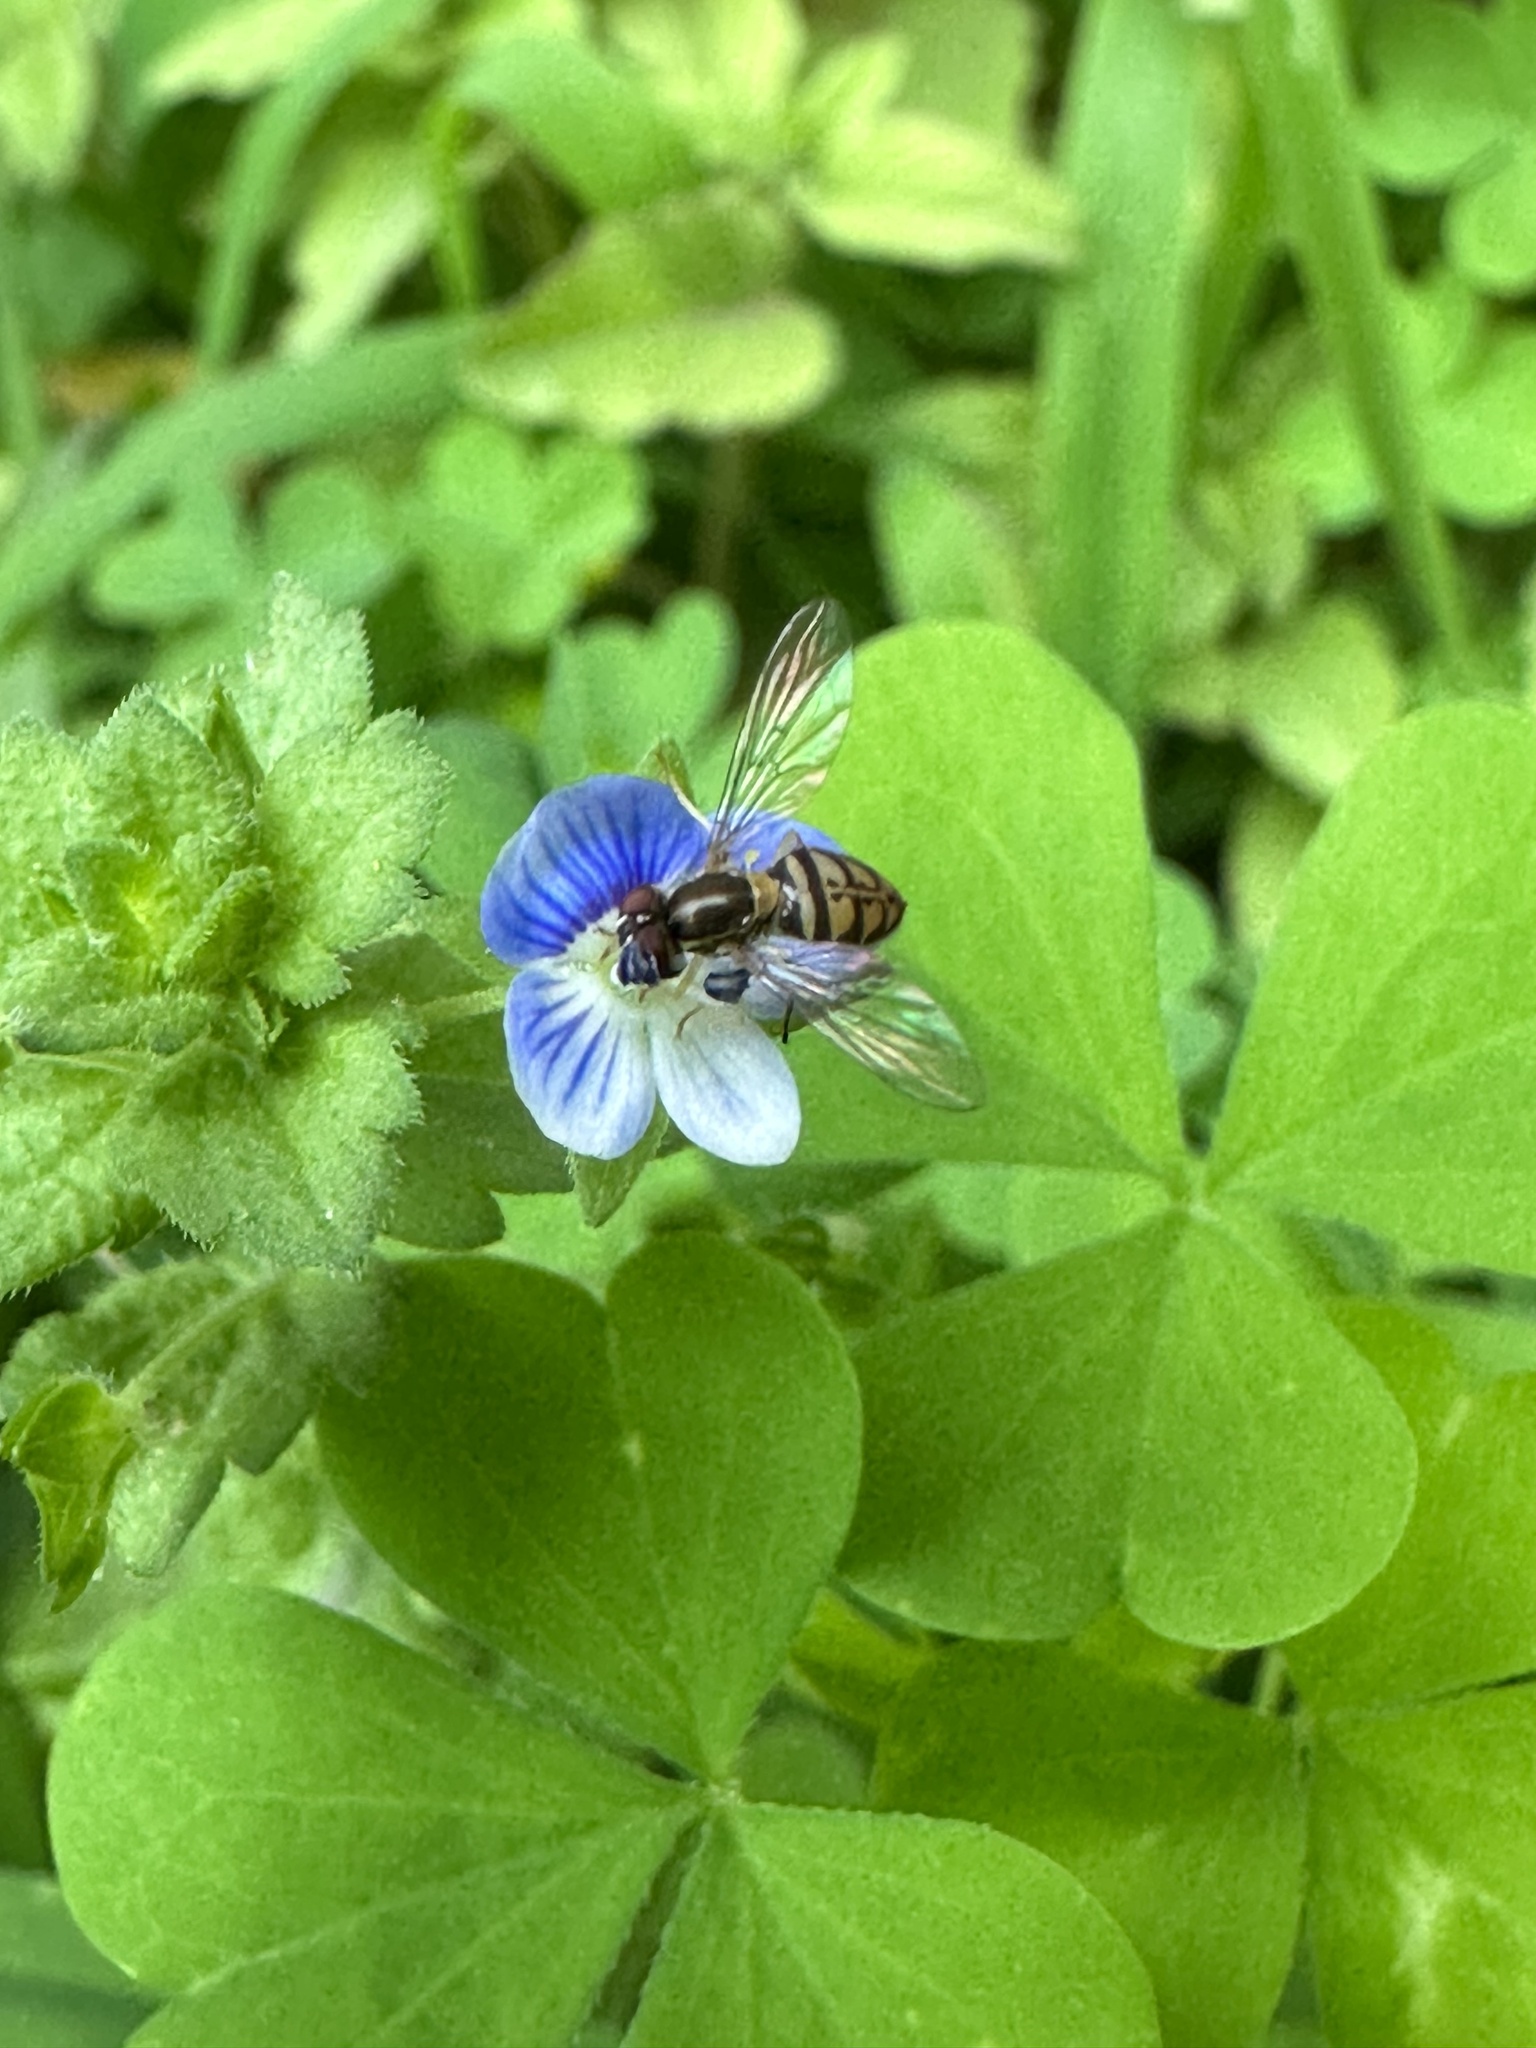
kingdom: Animalia
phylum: Arthropoda
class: Insecta
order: Diptera
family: Syrphidae
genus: Toxomerus
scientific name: Toxomerus marginatus
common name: Syrphid fly
